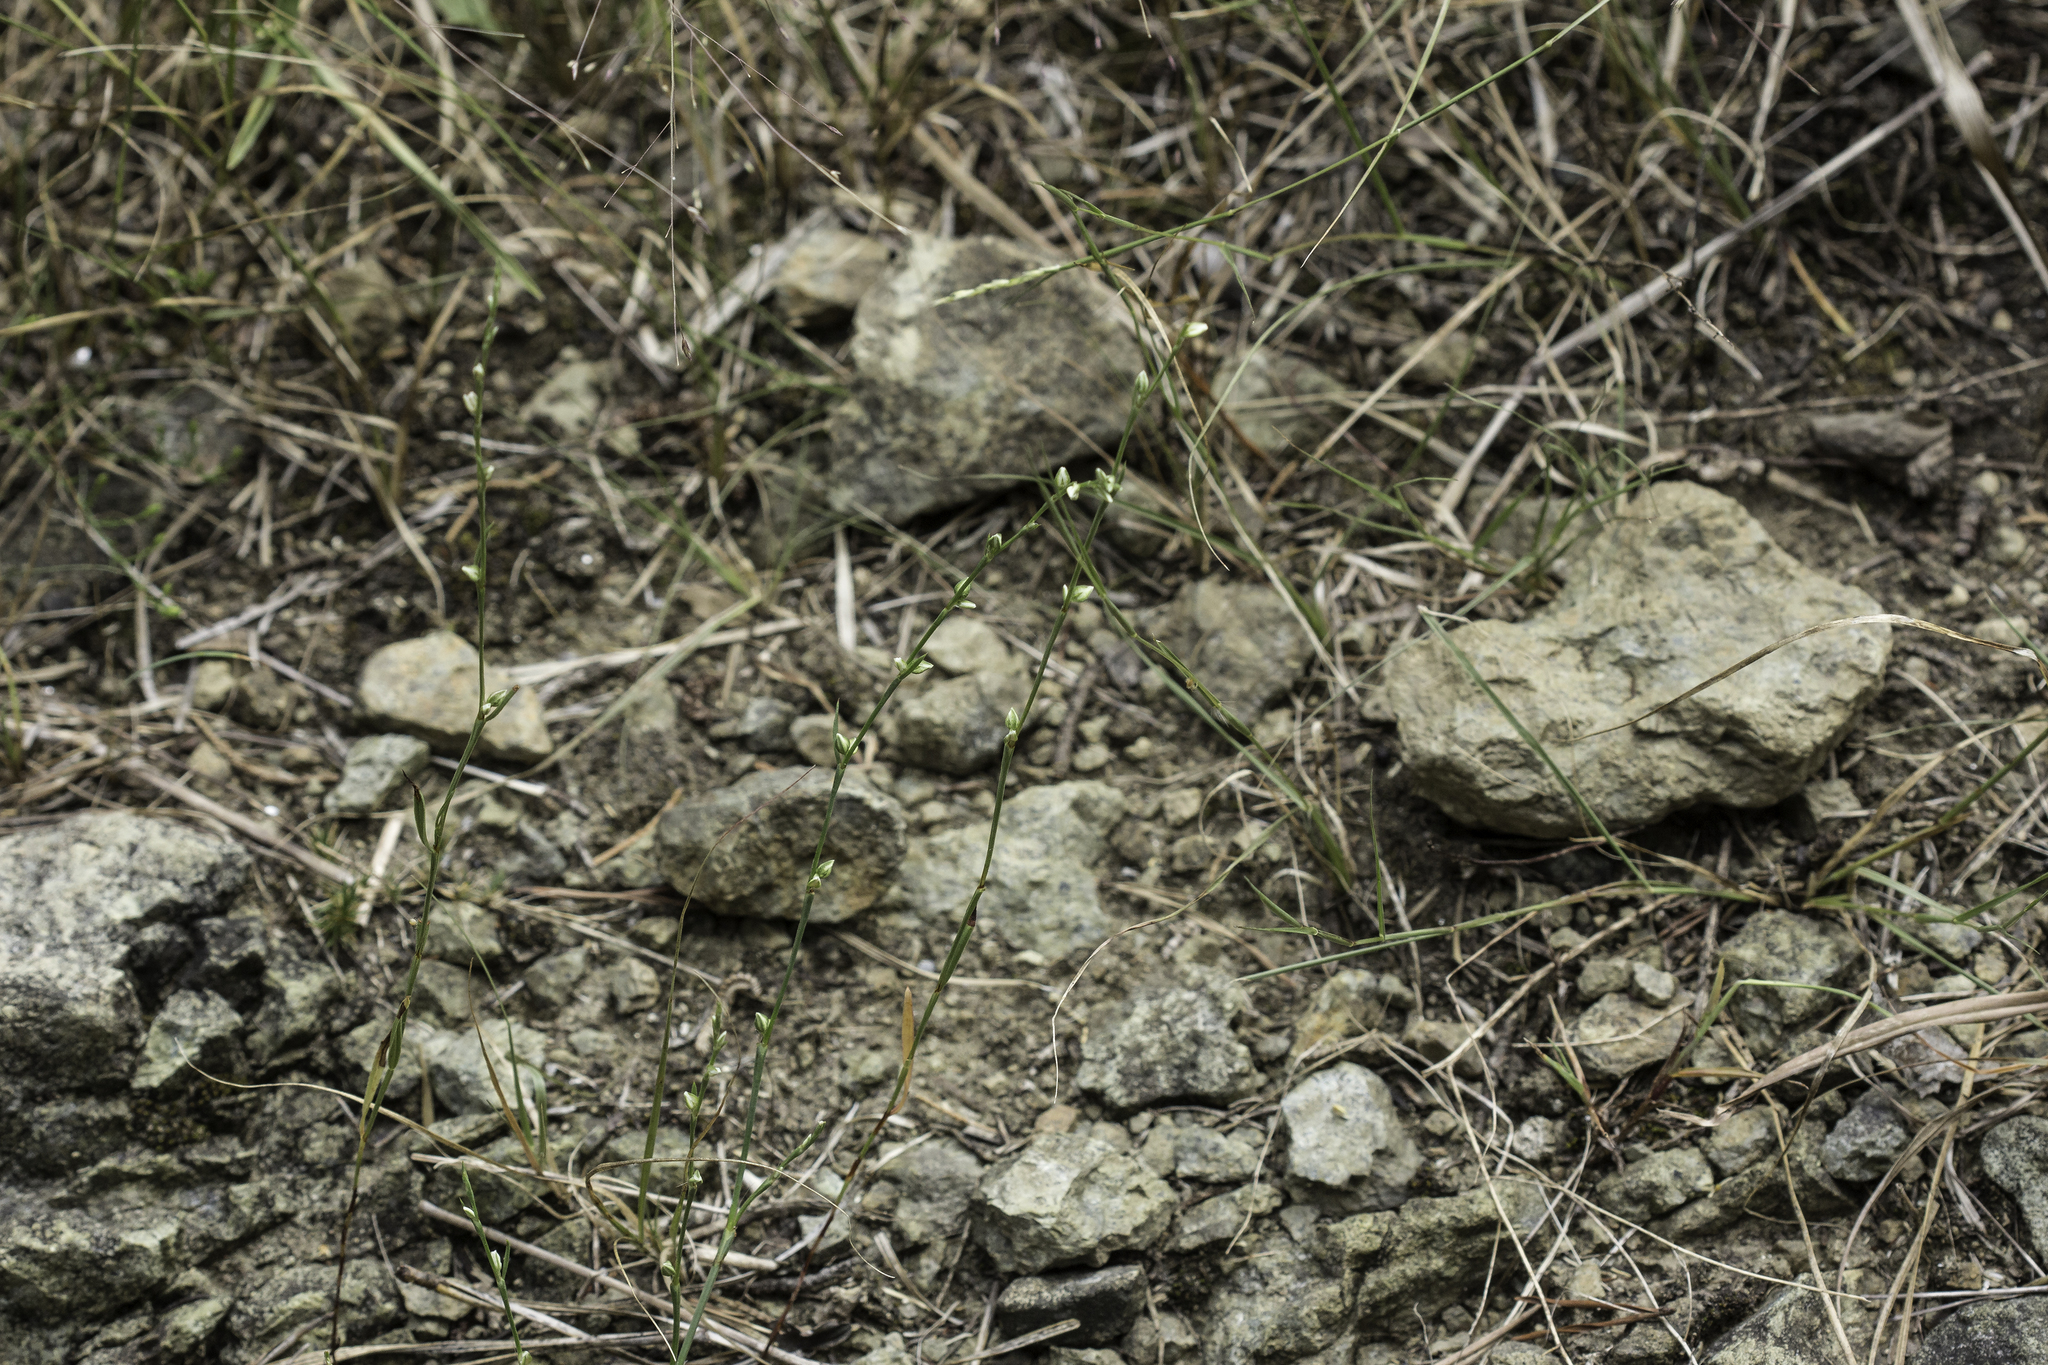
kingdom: Plantae
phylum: Tracheophyta
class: Magnoliopsida
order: Caryophyllales
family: Polygonaceae
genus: Polygonum
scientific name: Polygonum tenue
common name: Pleat-leaved knotweed
